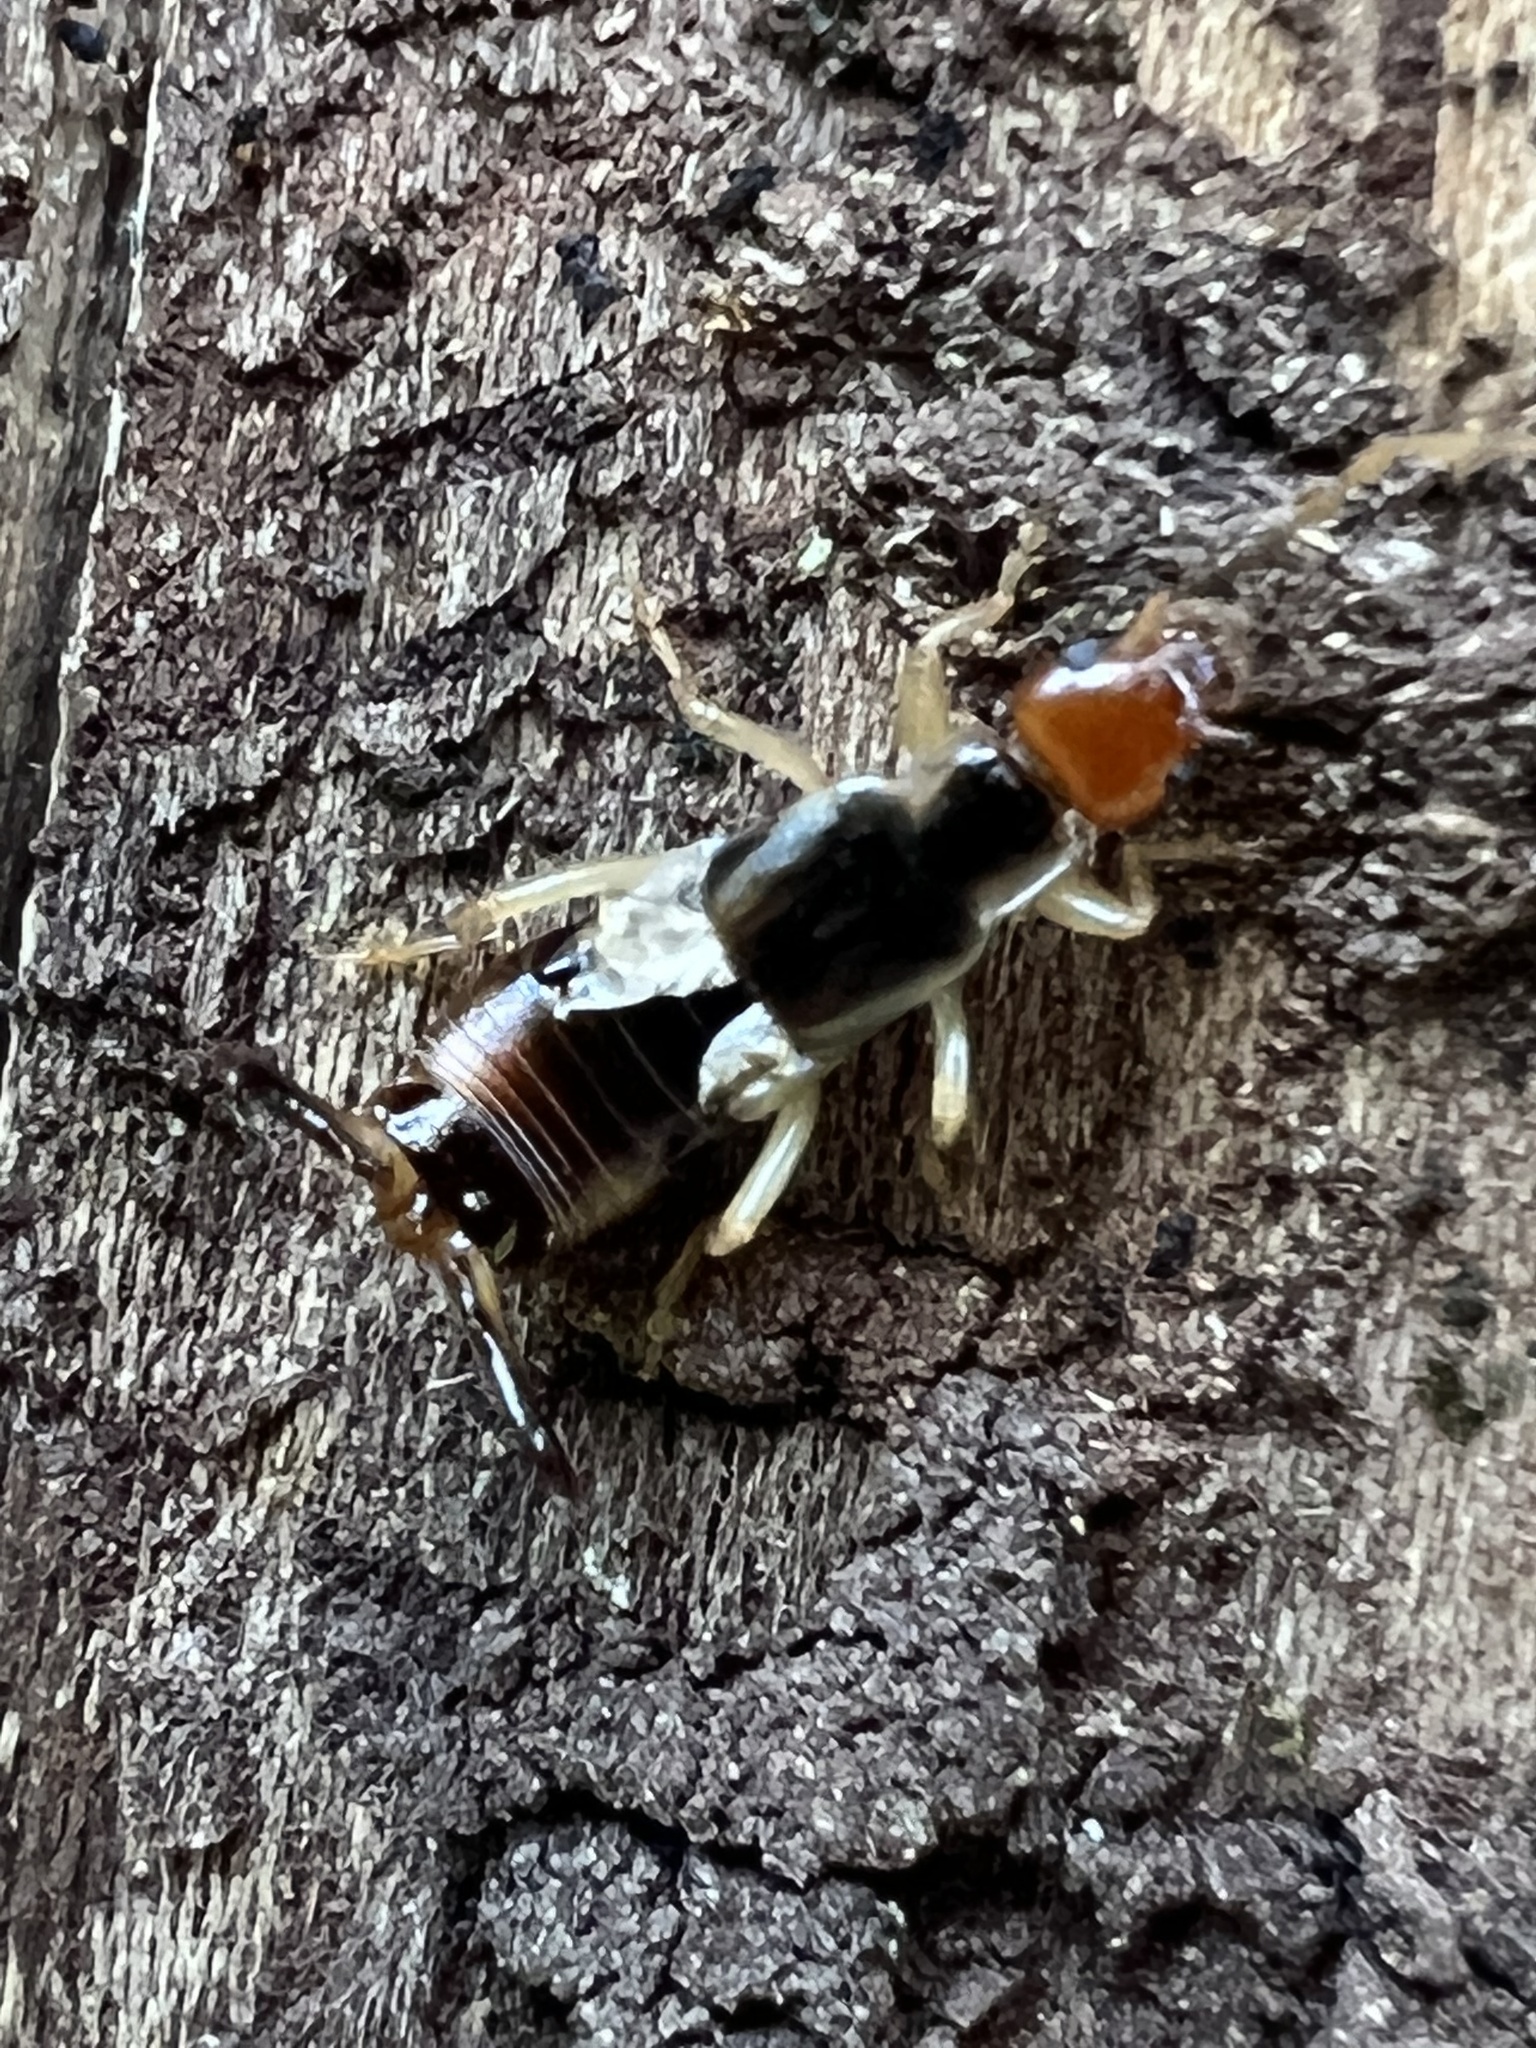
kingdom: Animalia
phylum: Arthropoda
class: Insecta
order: Dermaptera
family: Forficulidae
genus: Forficula
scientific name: Forficula
